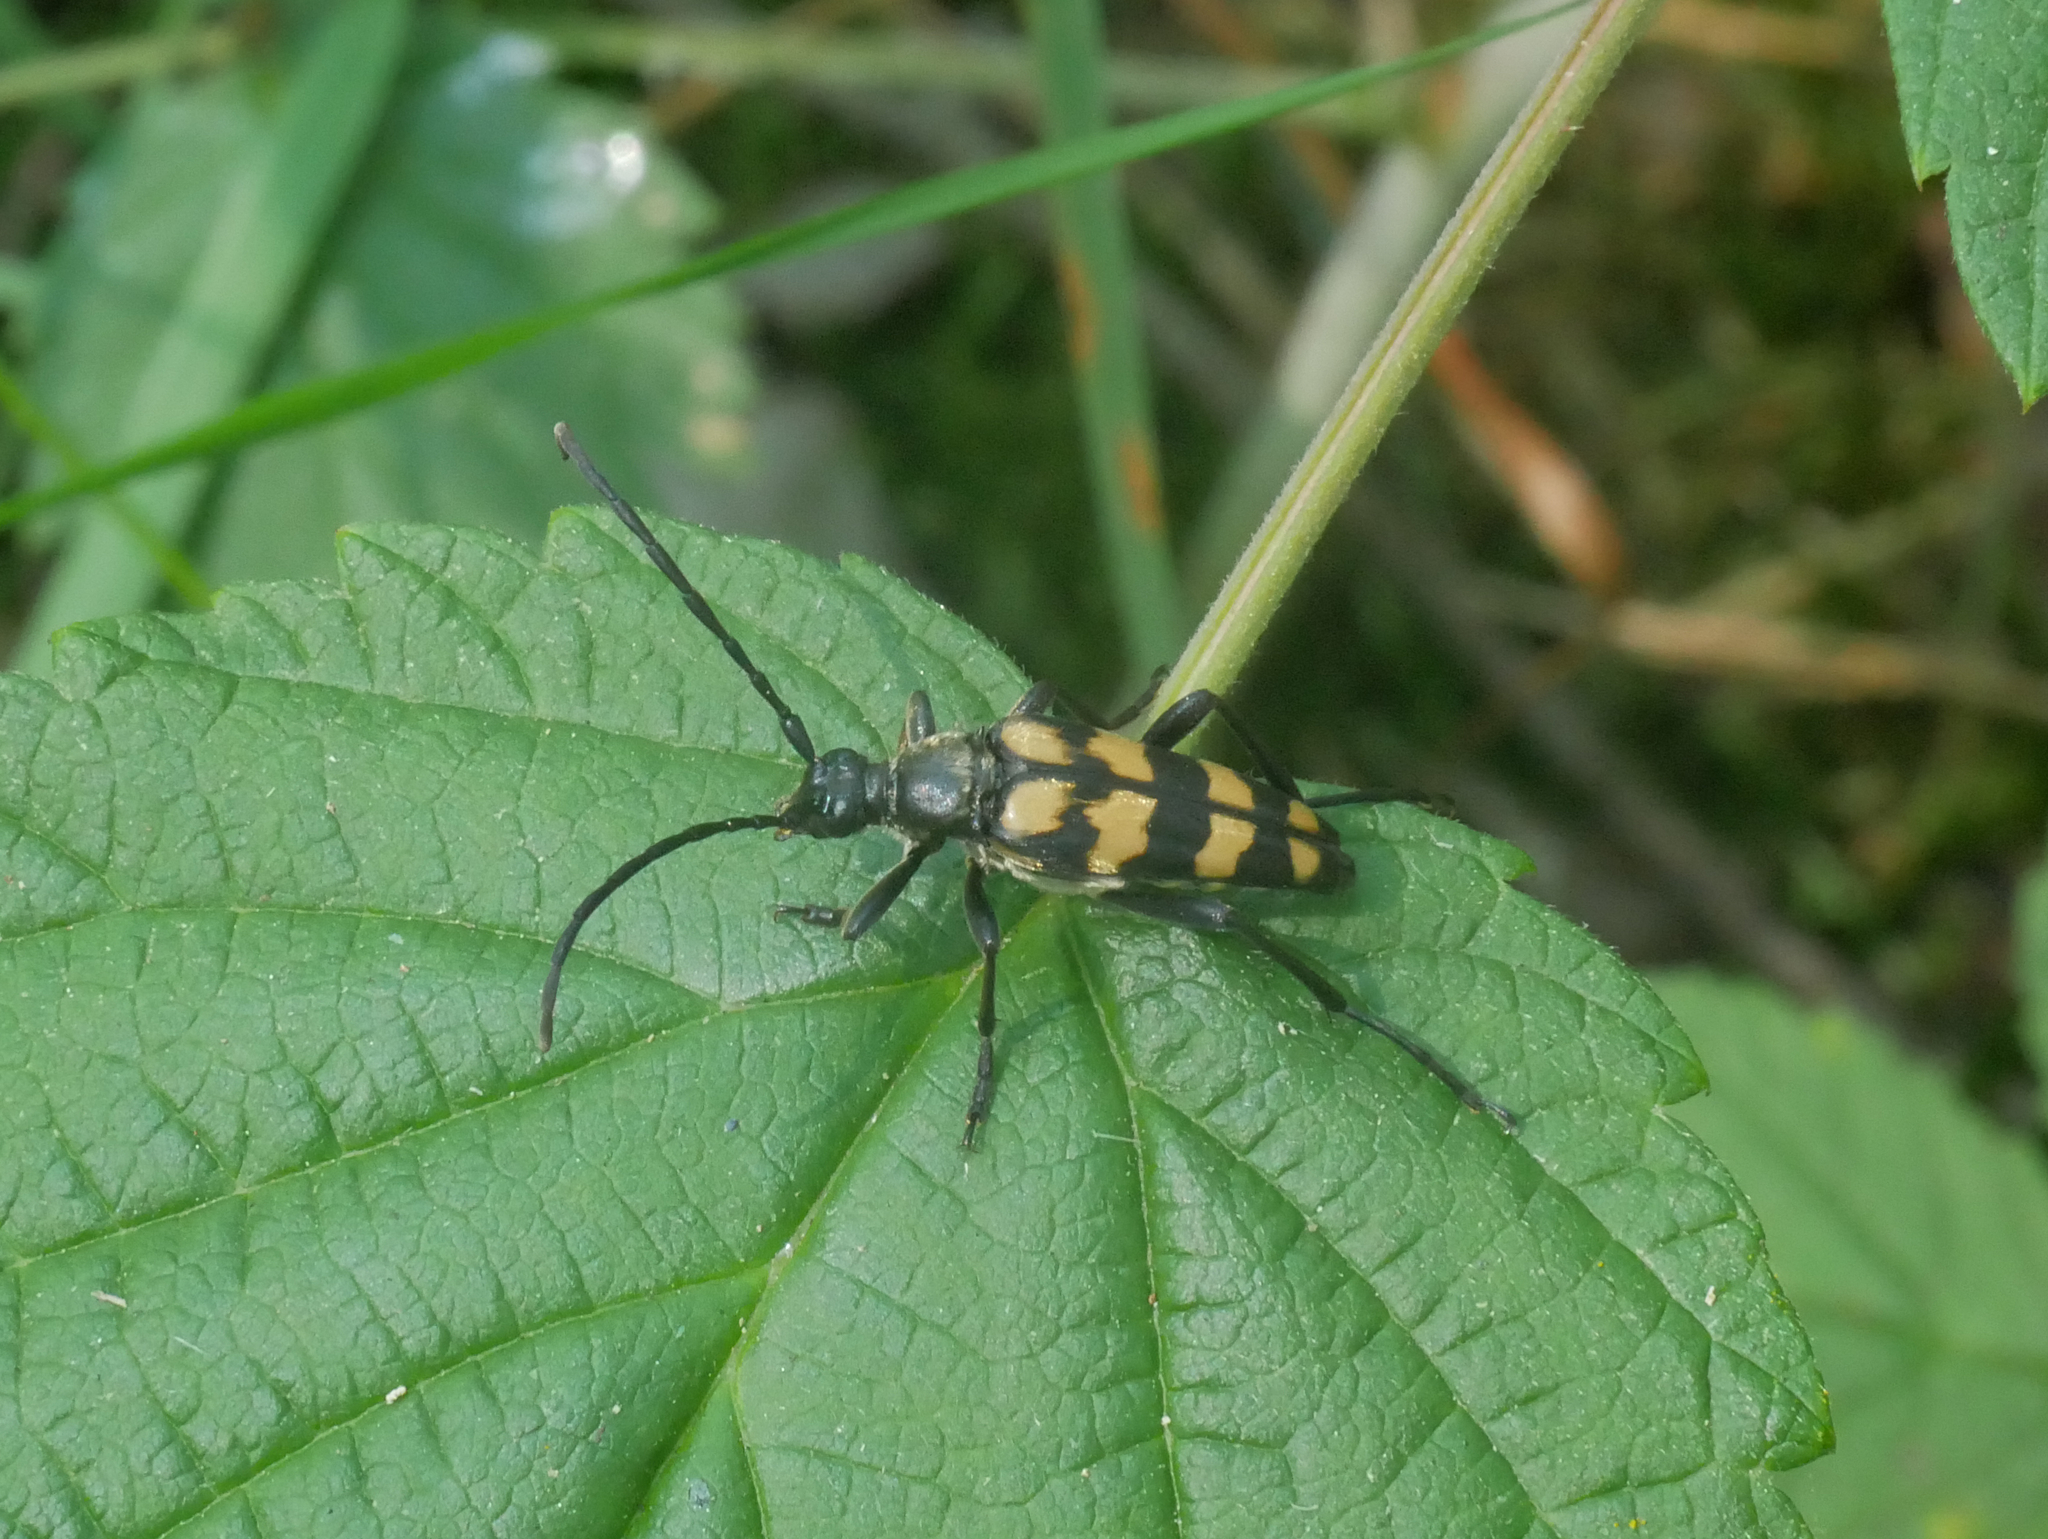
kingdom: Animalia
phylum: Arthropoda
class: Insecta
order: Coleoptera
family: Cerambycidae
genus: Leptura
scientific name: Leptura quadrifasciata
